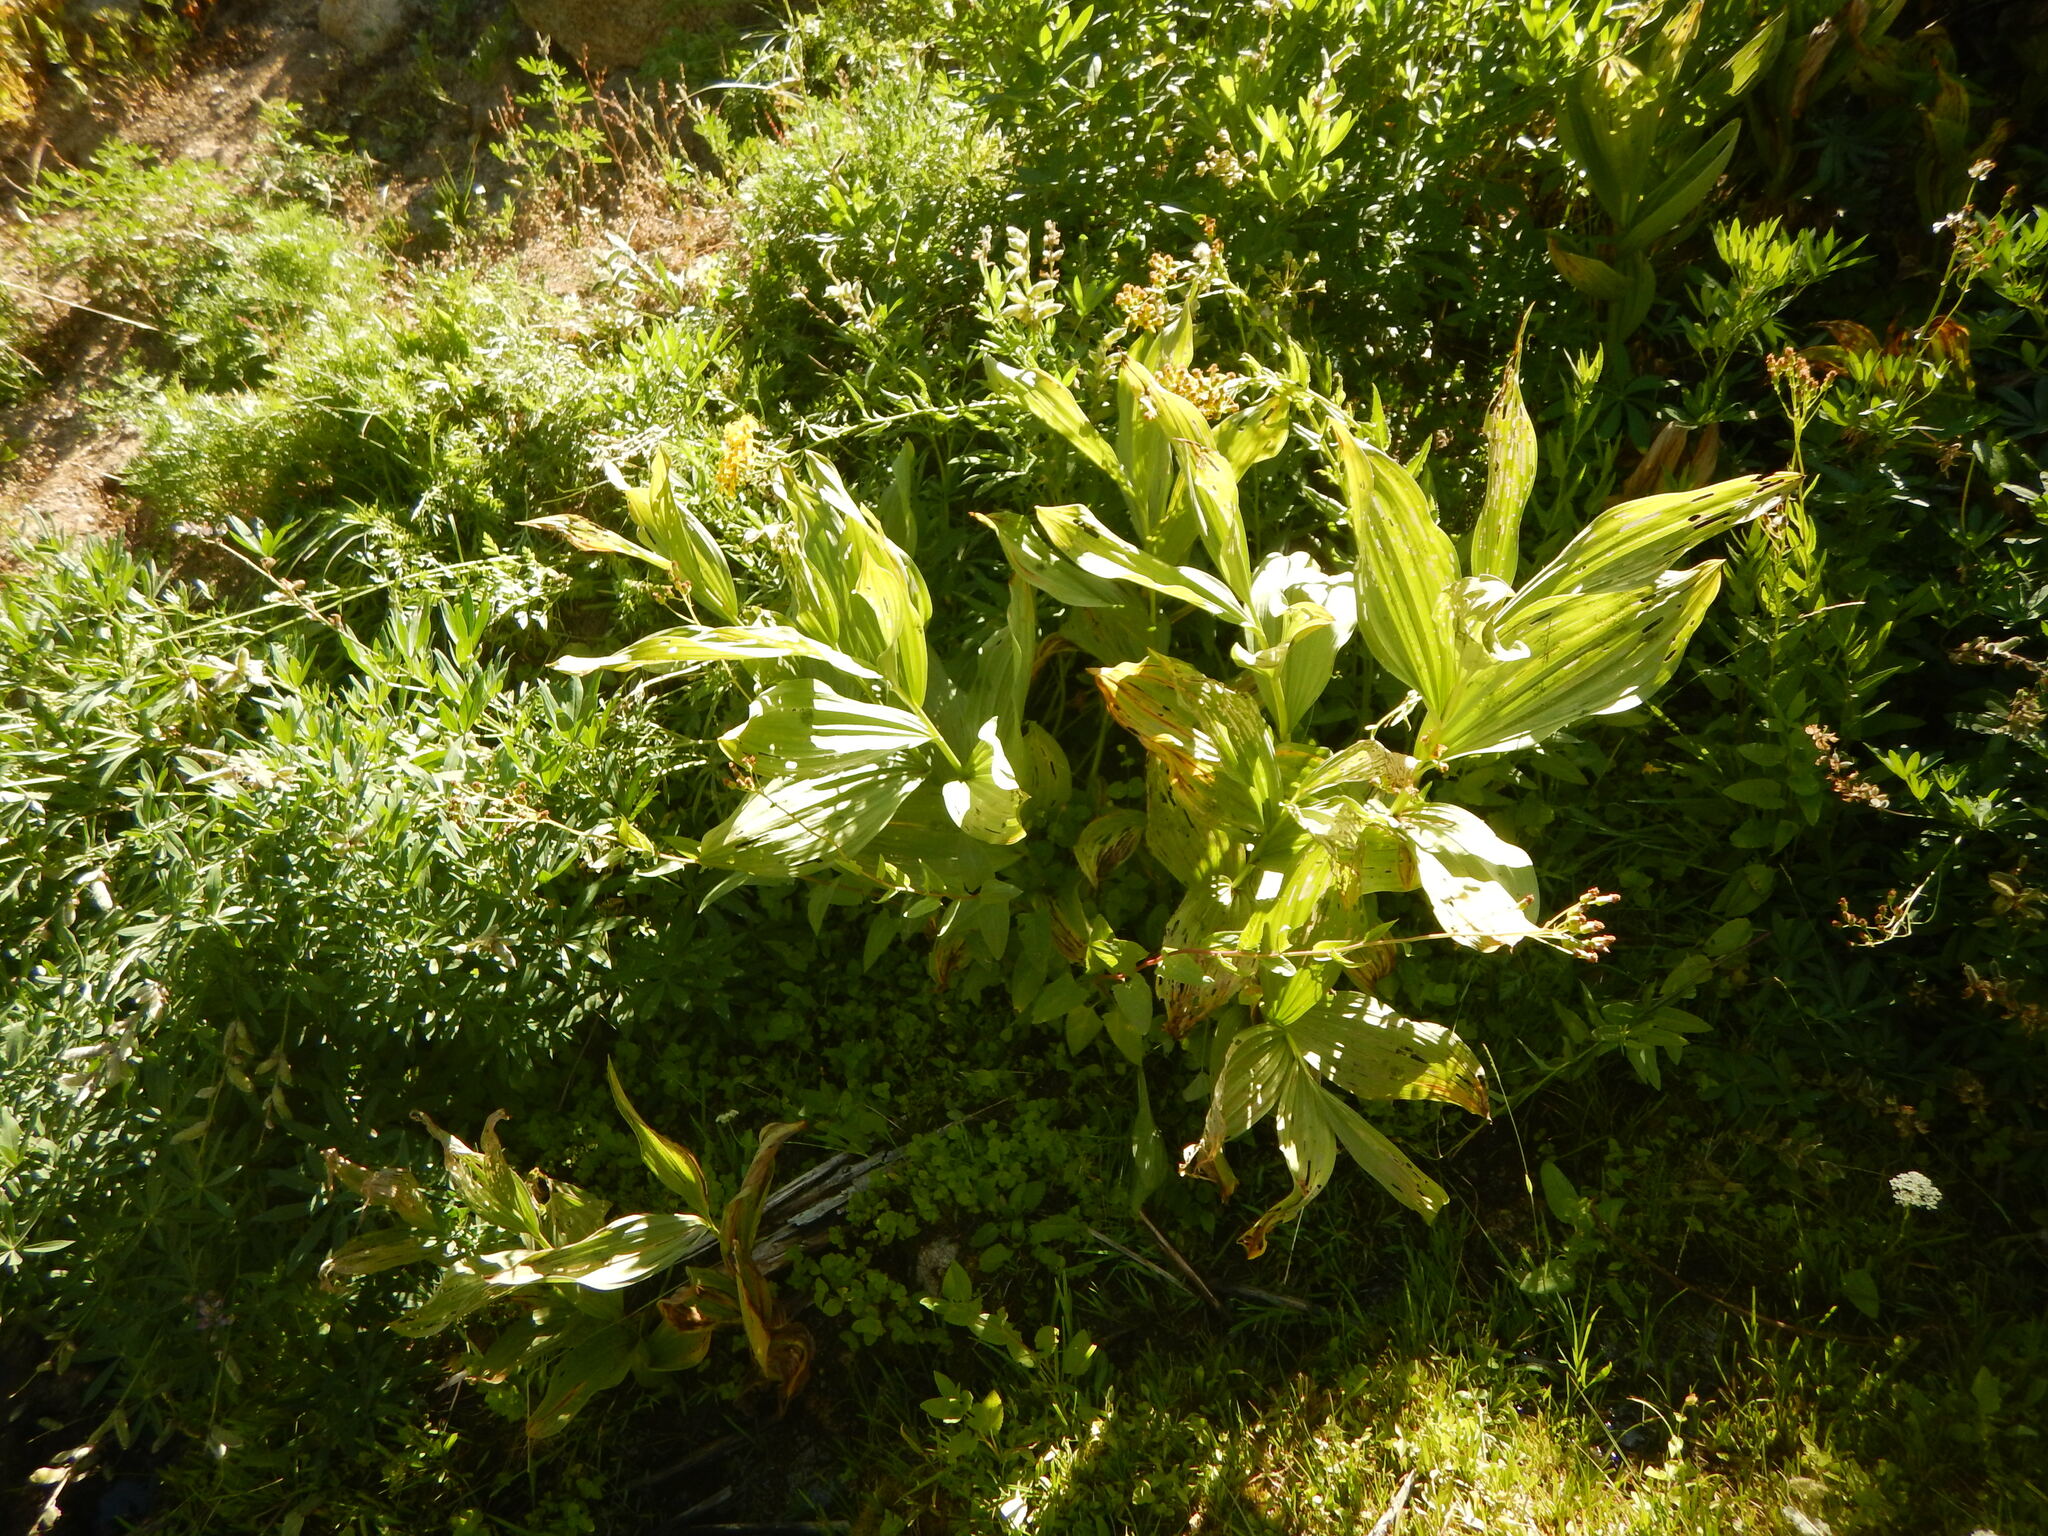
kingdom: Plantae
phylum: Tracheophyta
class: Liliopsida
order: Liliales
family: Melanthiaceae
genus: Veratrum
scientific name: Veratrum californicum
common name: California veratrum
